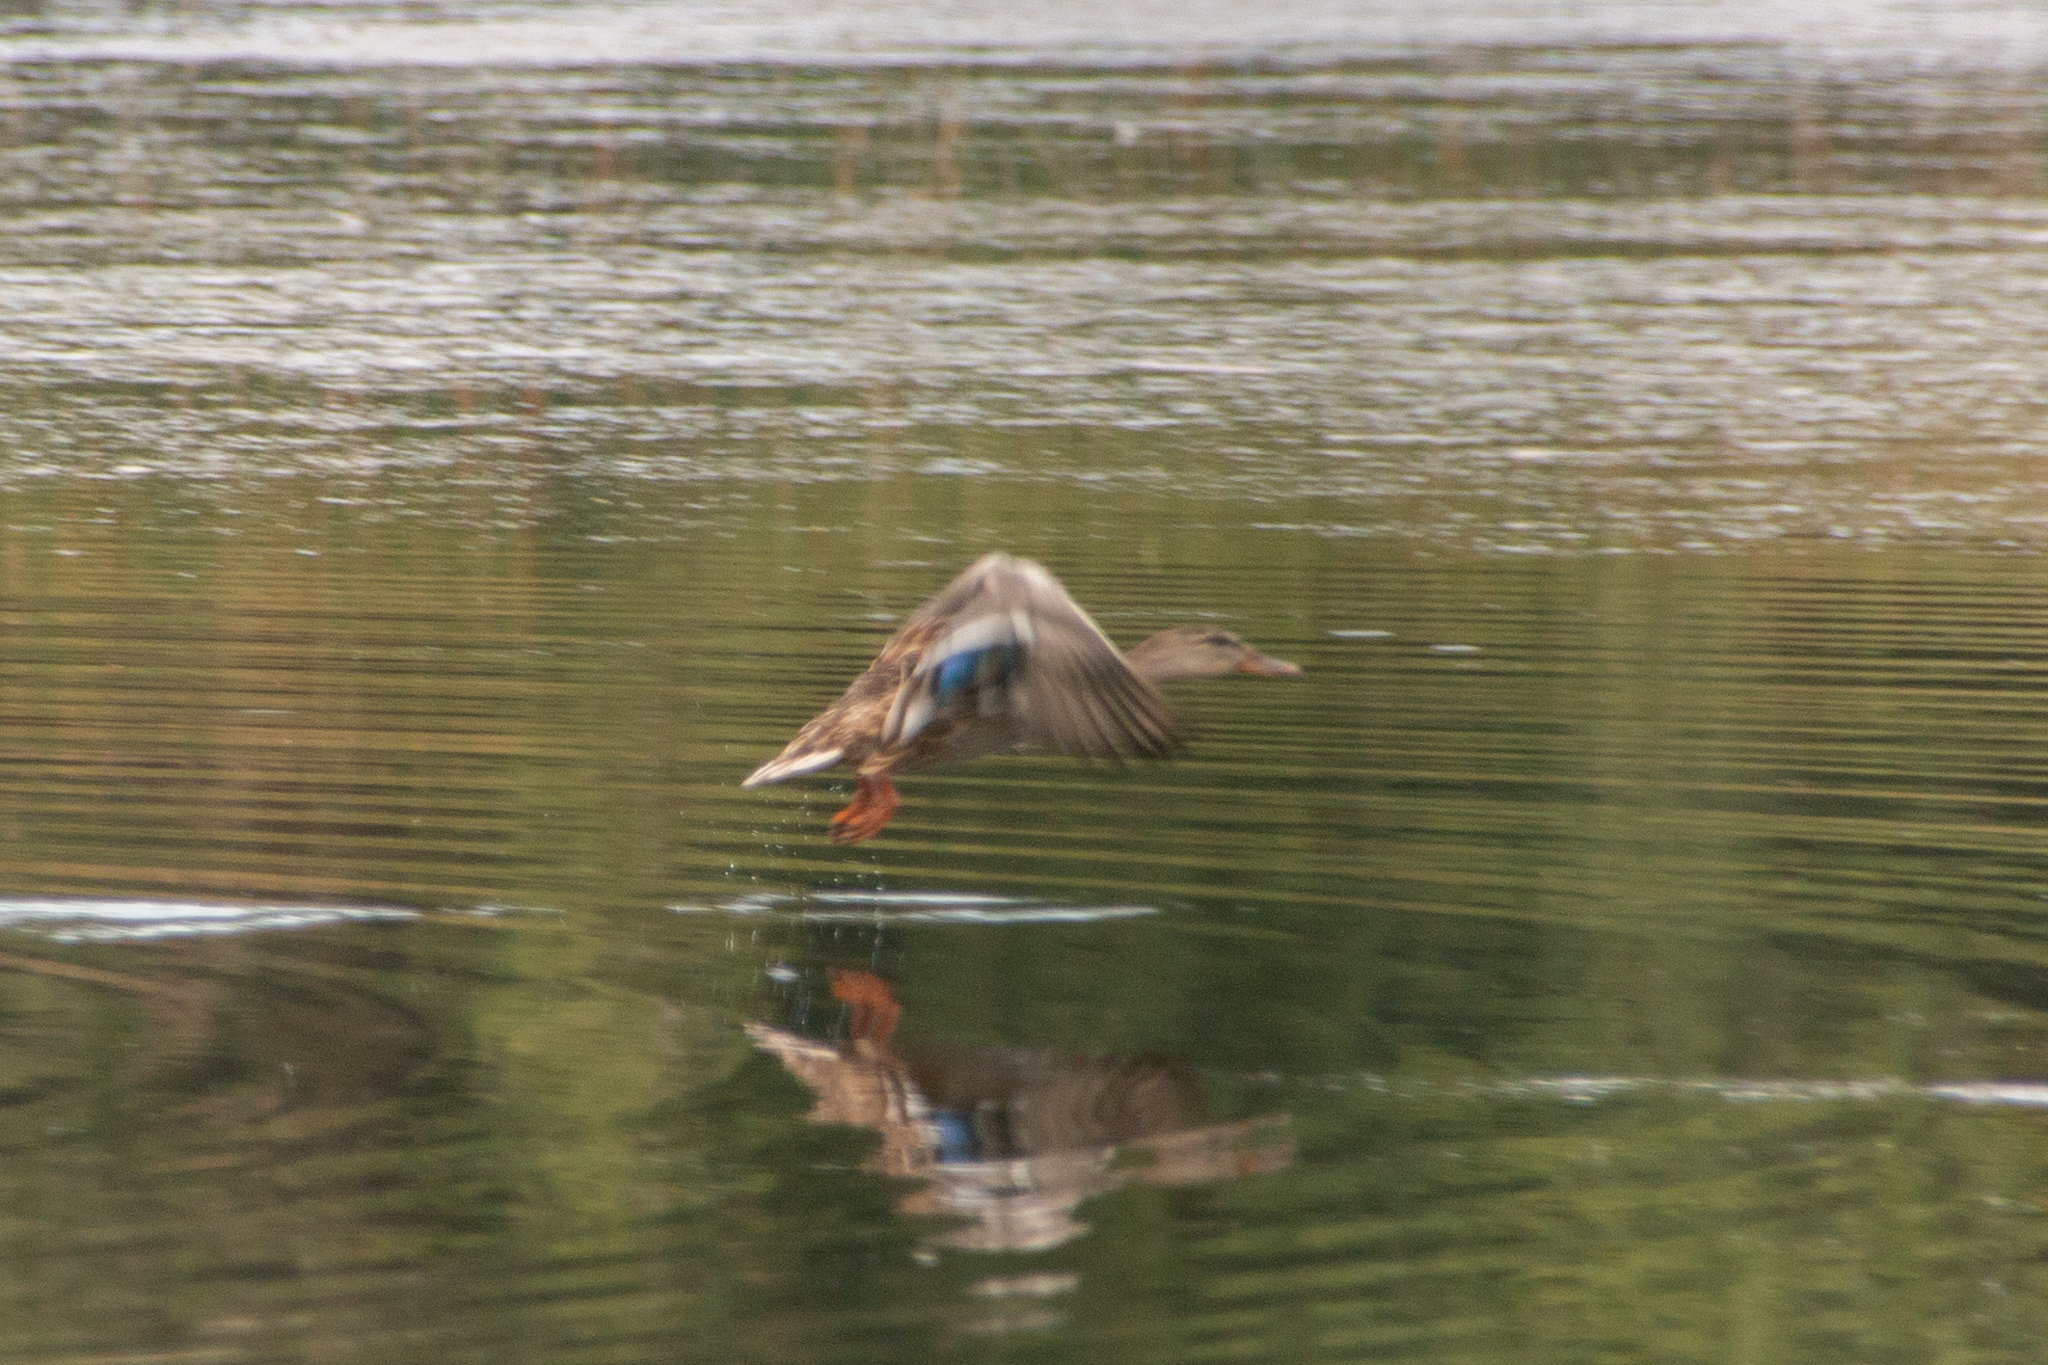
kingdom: Animalia
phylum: Chordata
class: Aves
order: Anseriformes
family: Anatidae
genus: Anas
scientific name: Anas platyrhynchos
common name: Mallard
